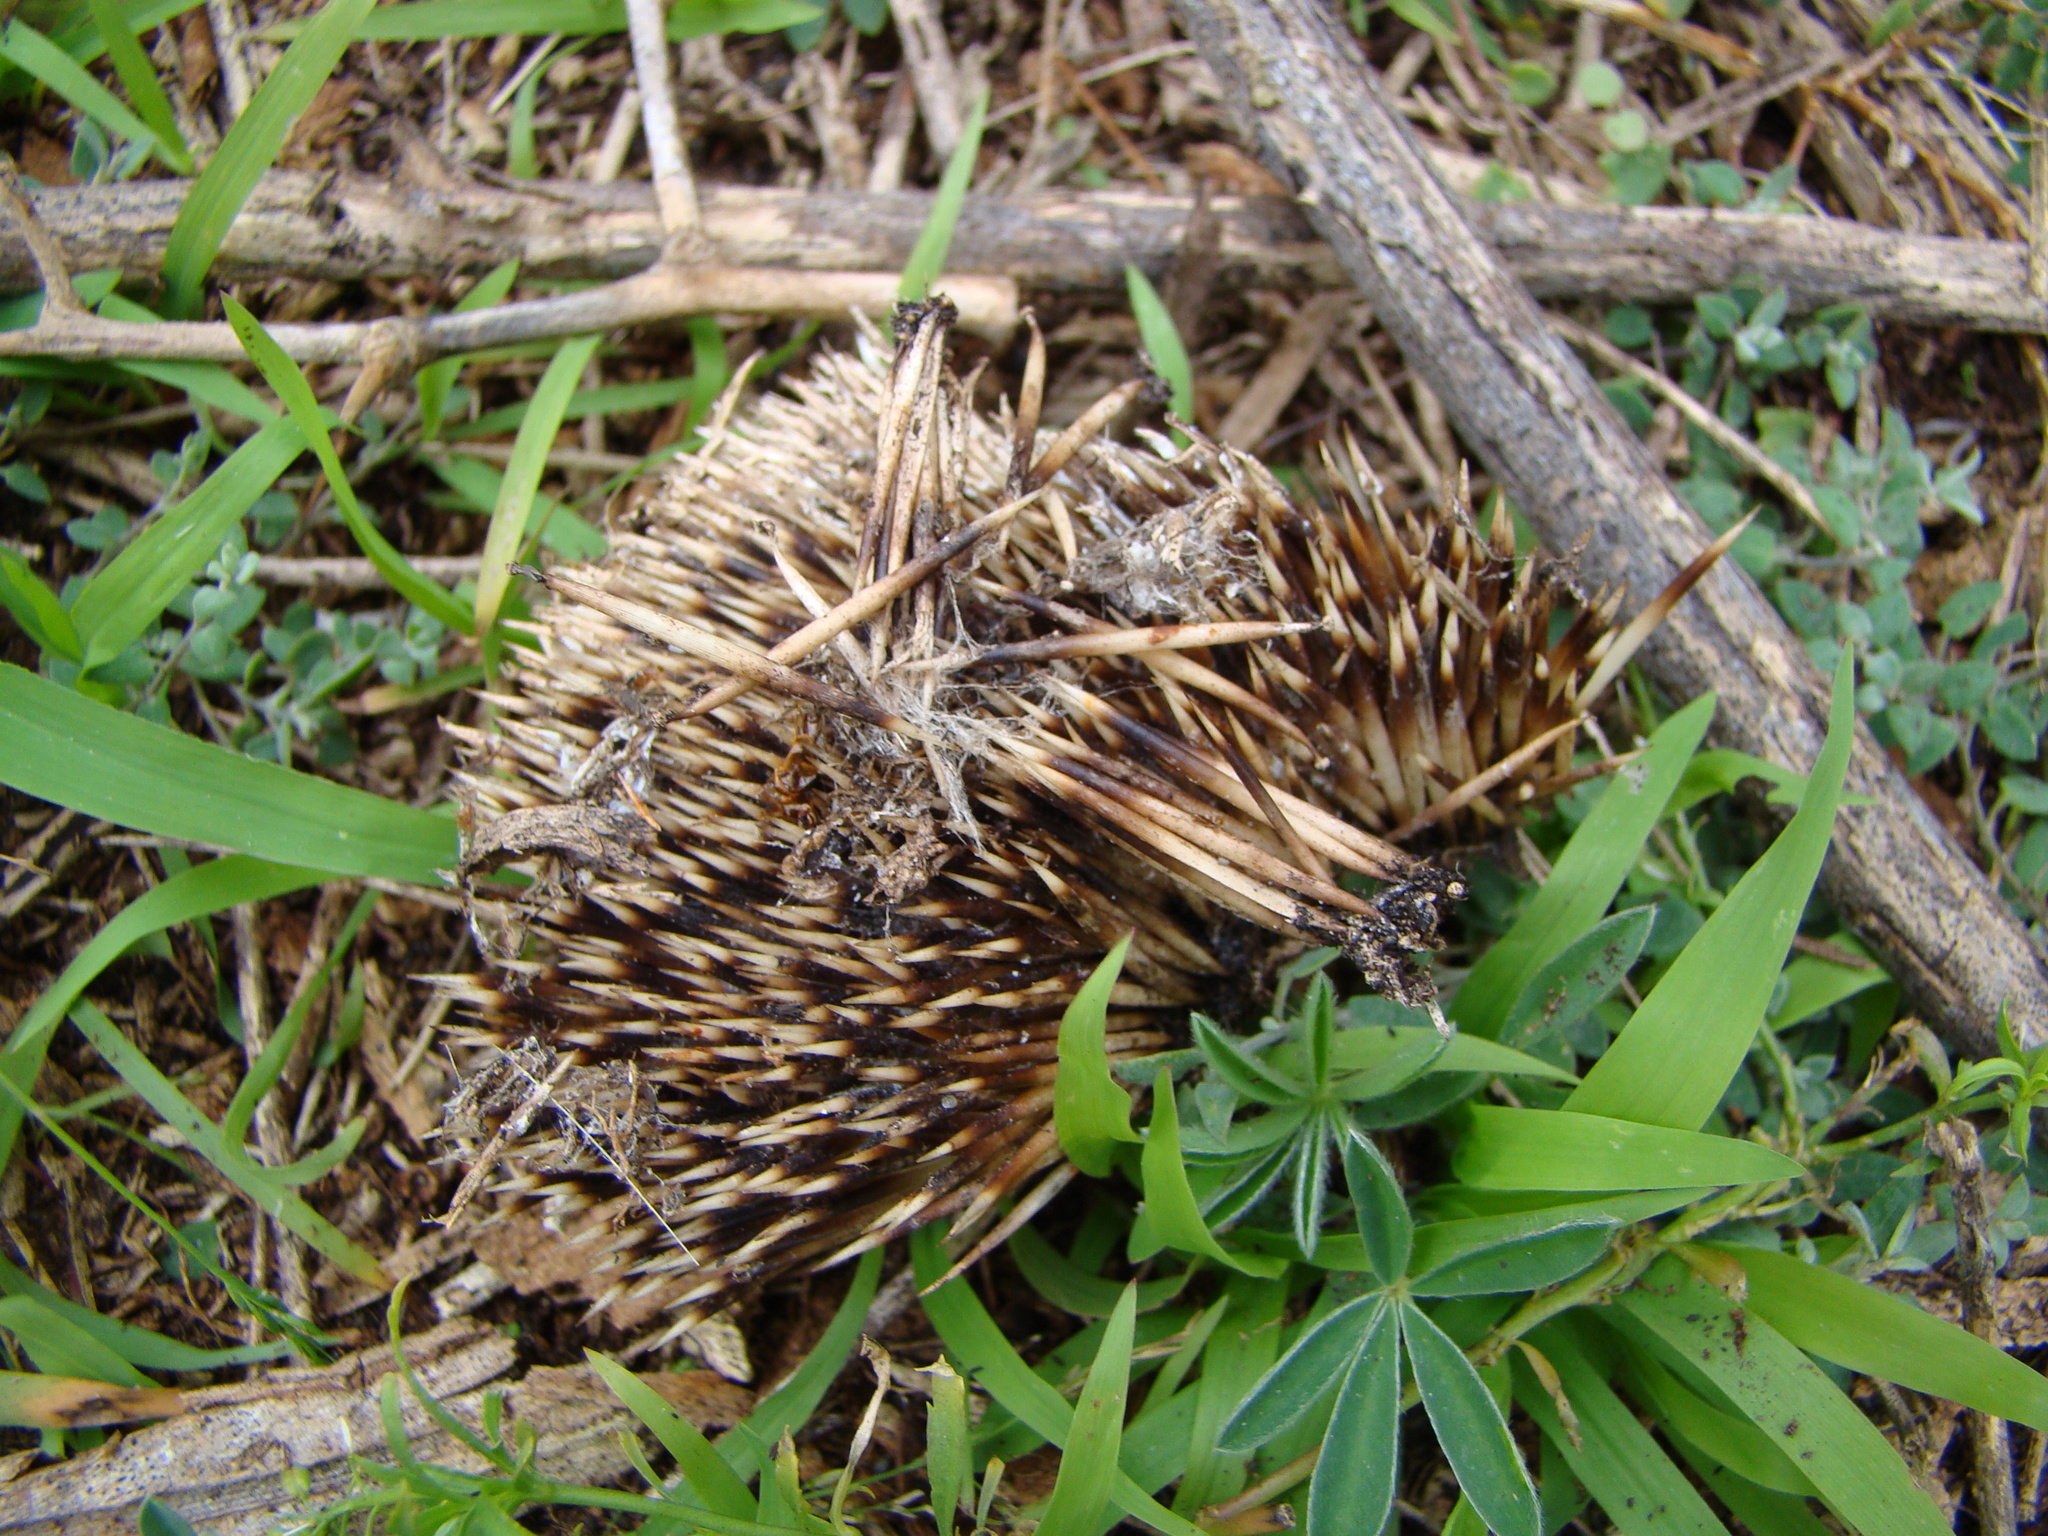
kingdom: Animalia
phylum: Chordata
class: Mammalia
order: Erinaceomorpha
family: Erinaceidae
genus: Erinaceus
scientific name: Erinaceus europaeus
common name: West european hedgehog
